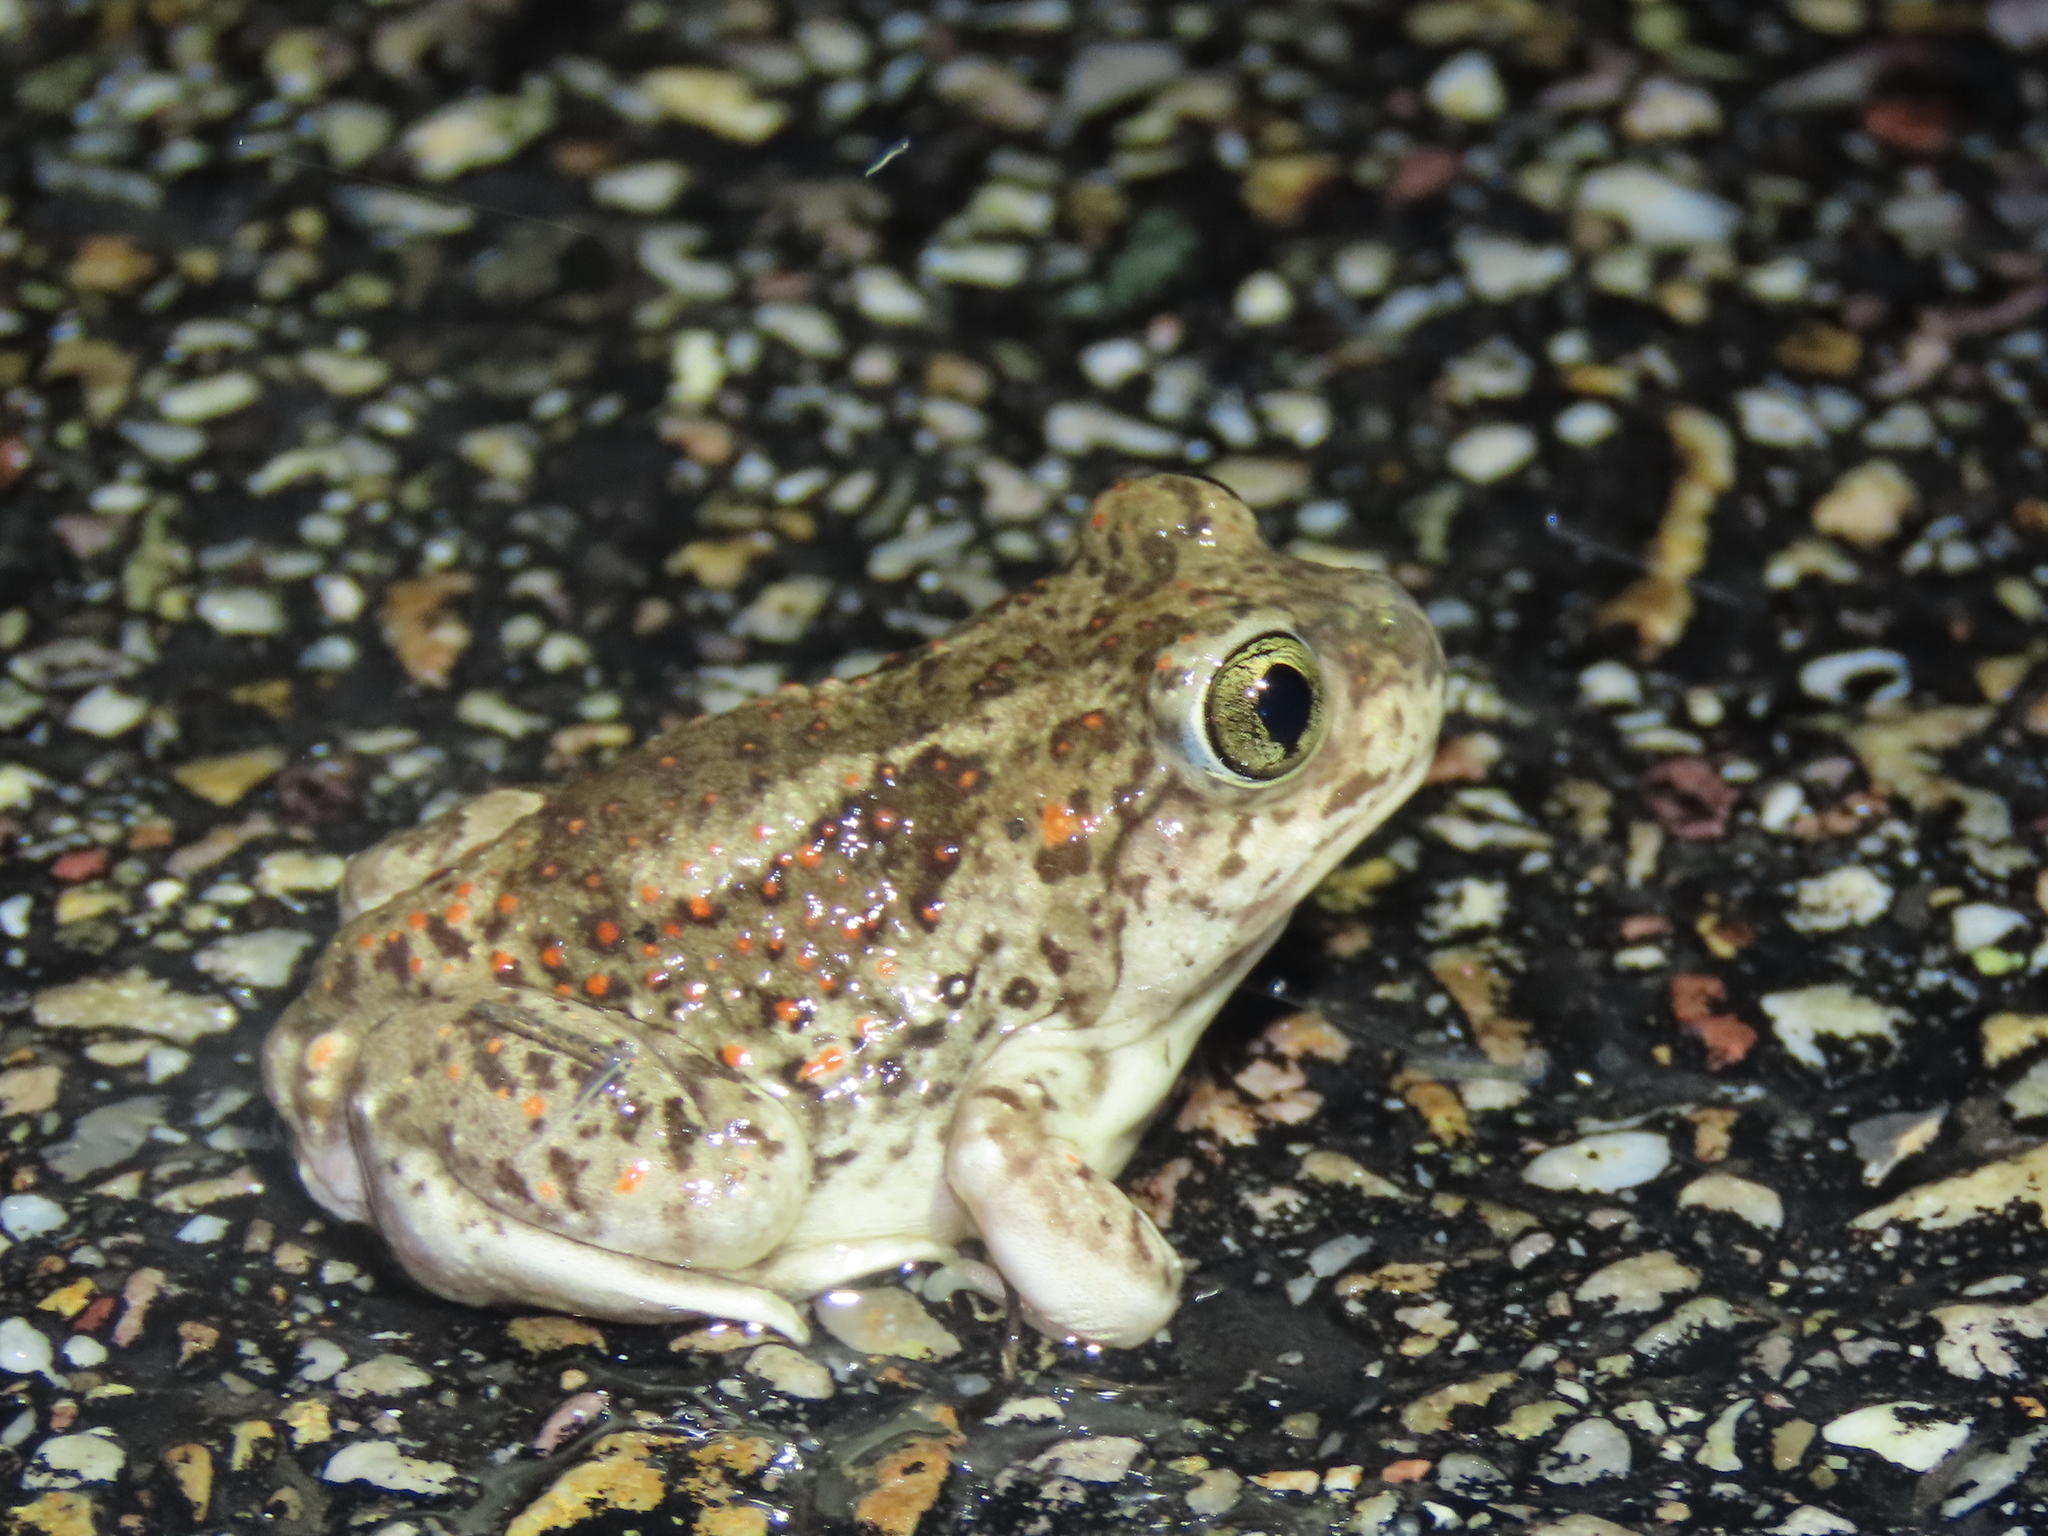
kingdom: Animalia
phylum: Chordata
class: Amphibia
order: Anura
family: Scaphiopodidae
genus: Spea
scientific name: Spea multiplicata
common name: Mexican spadefoot
